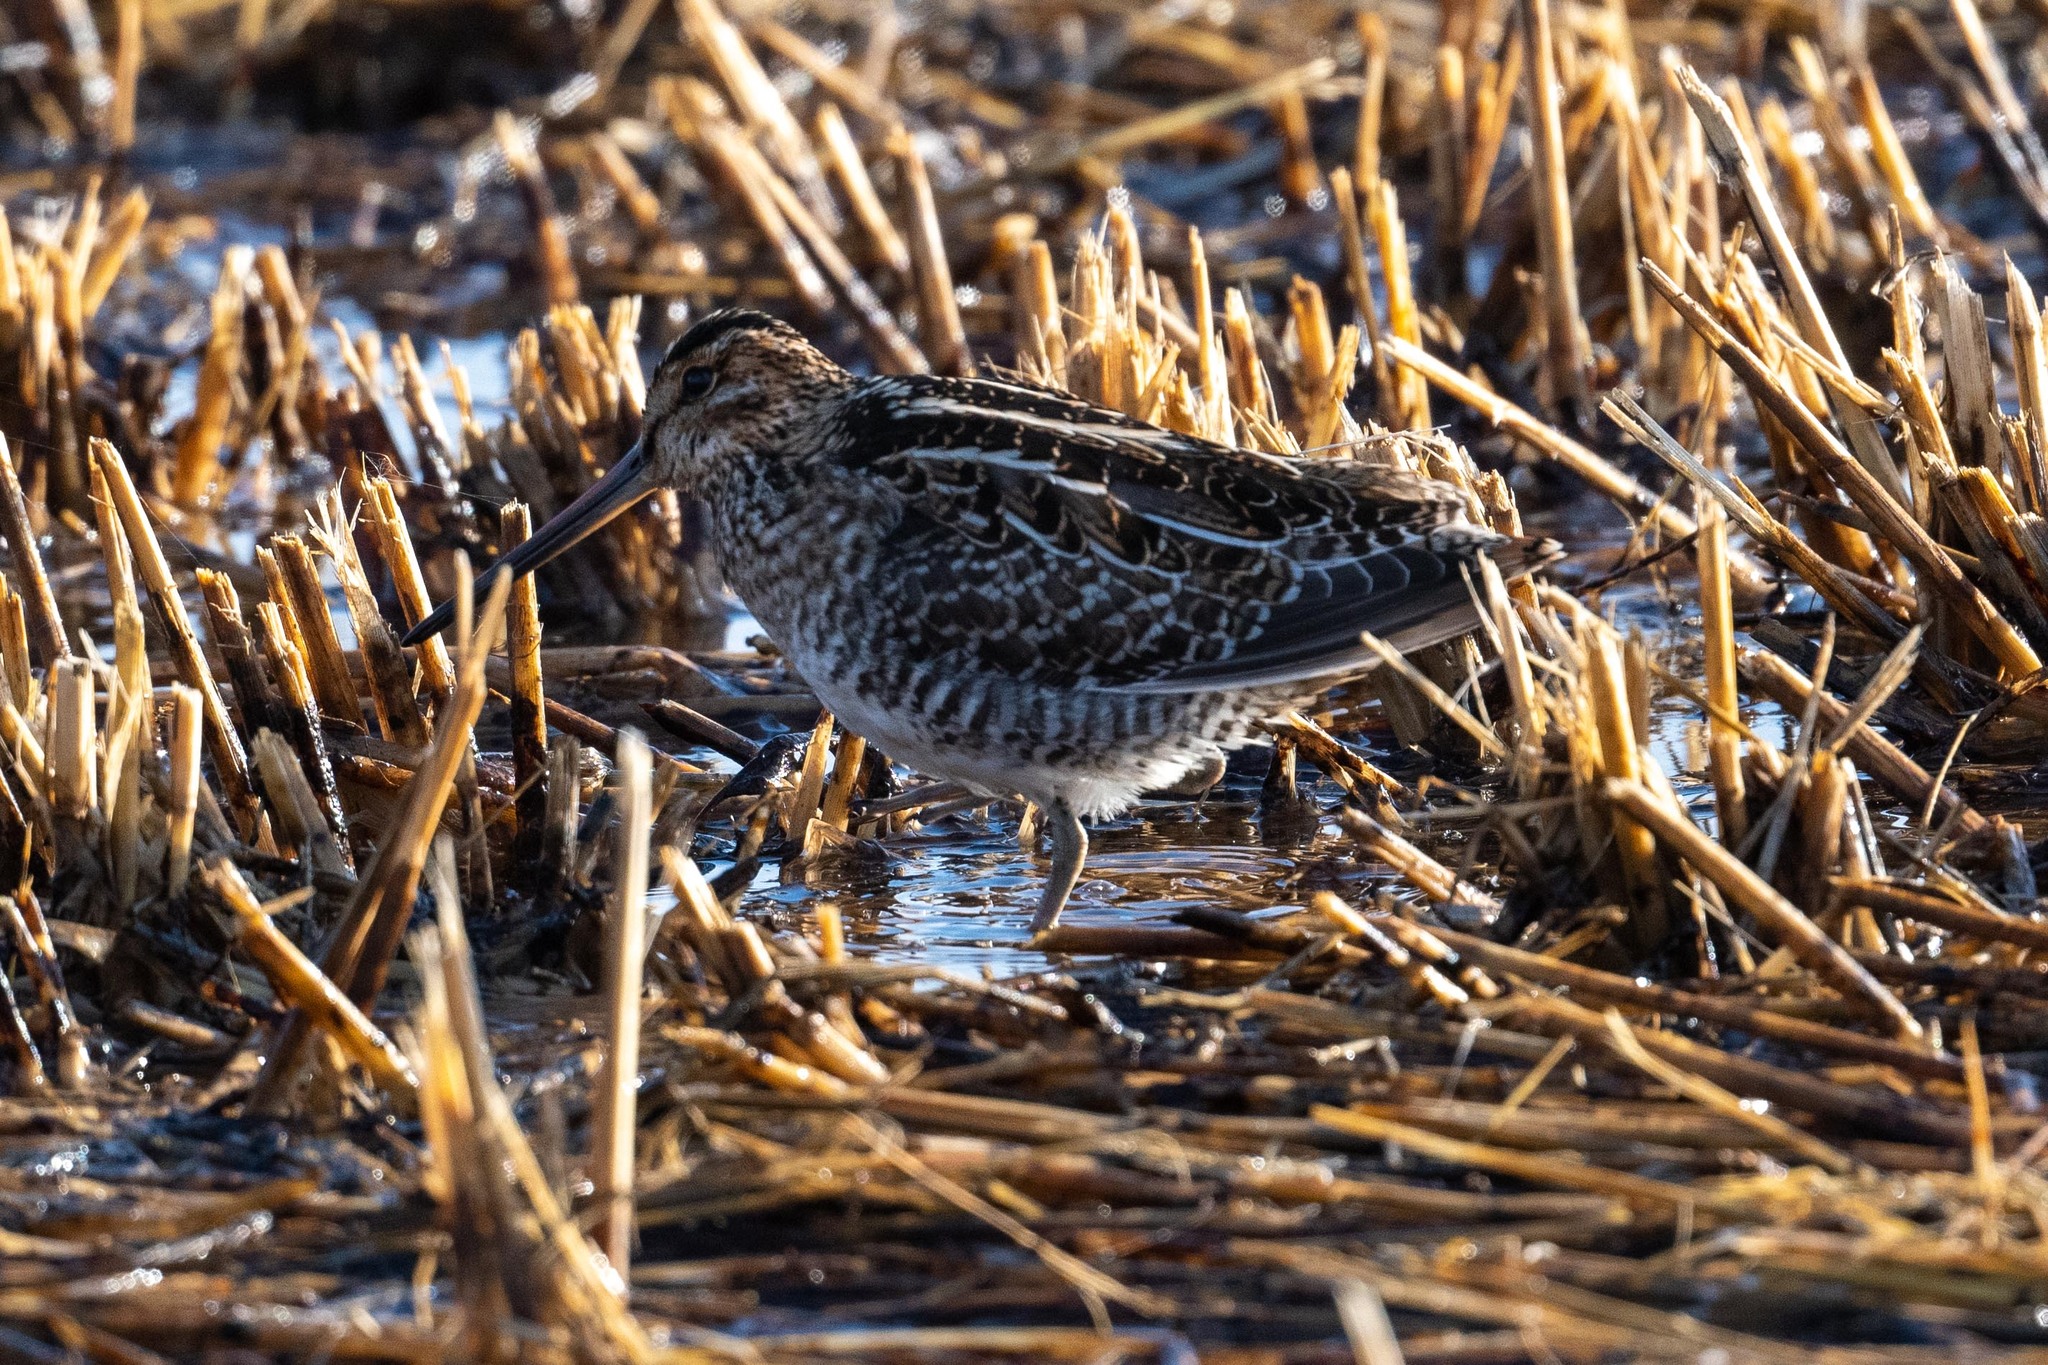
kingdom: Animalia
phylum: Chordata
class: Aves
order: Charadriiformes
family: Scolopacidae
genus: Gallinago
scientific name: Gallinago delicata
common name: Wilson's snipe
